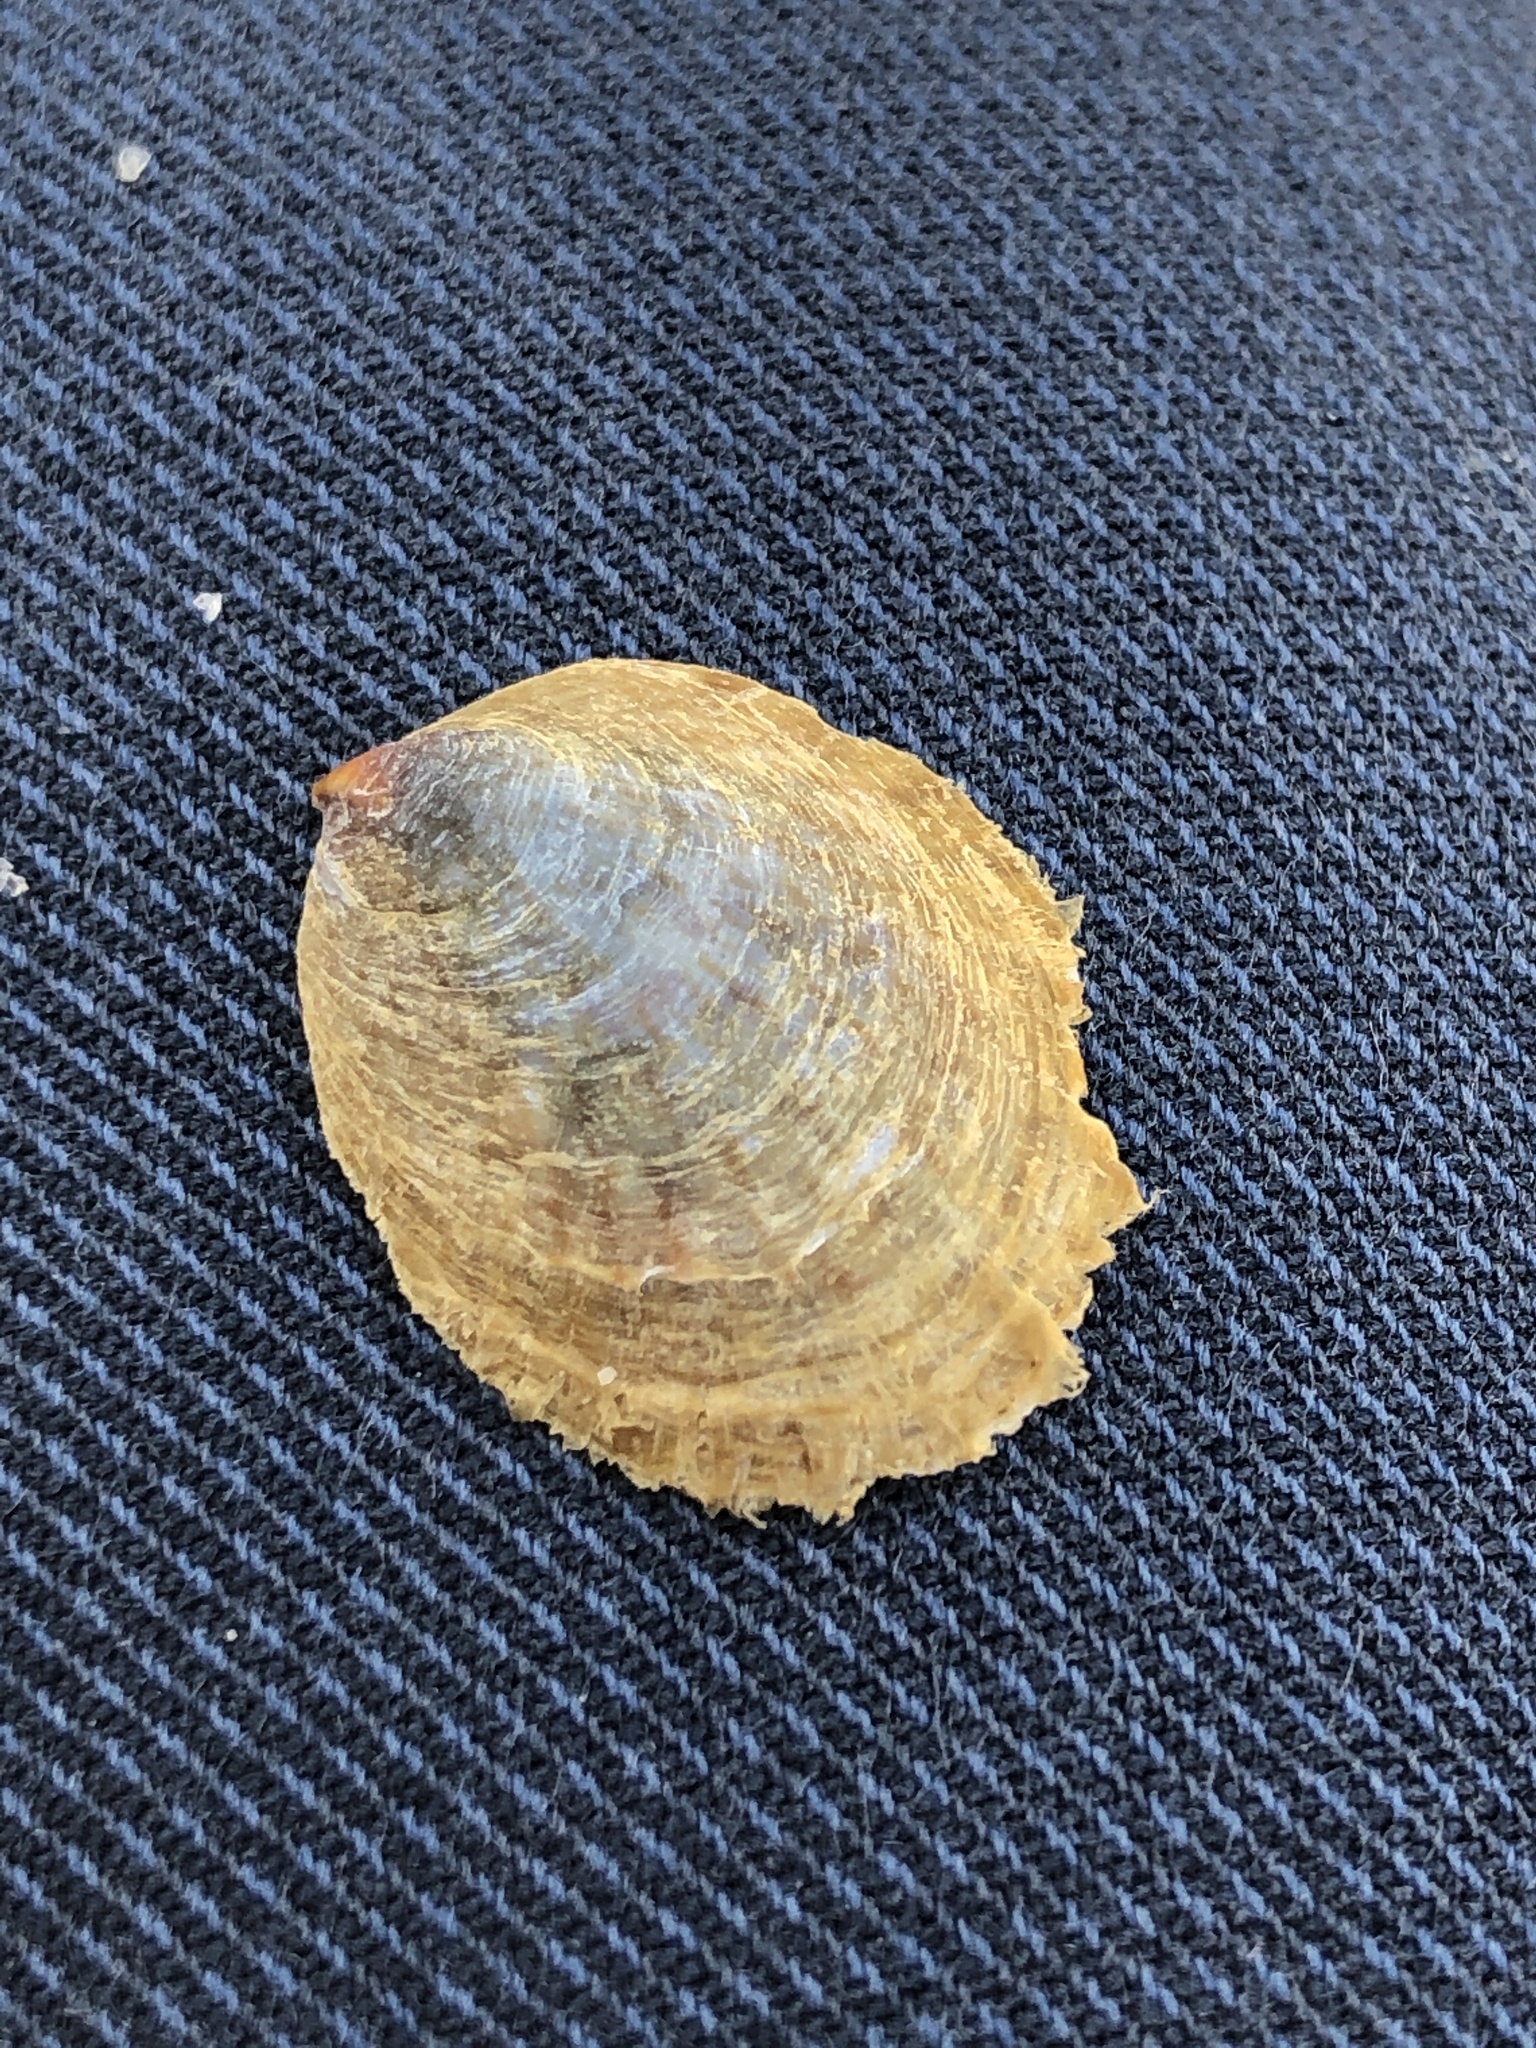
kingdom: Animalia
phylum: Mollusca
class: Gastropoda
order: Littorinimorpha
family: Calyptraeidae
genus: Crepidula
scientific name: Crepidula onyx
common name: Onyx slippersnail
